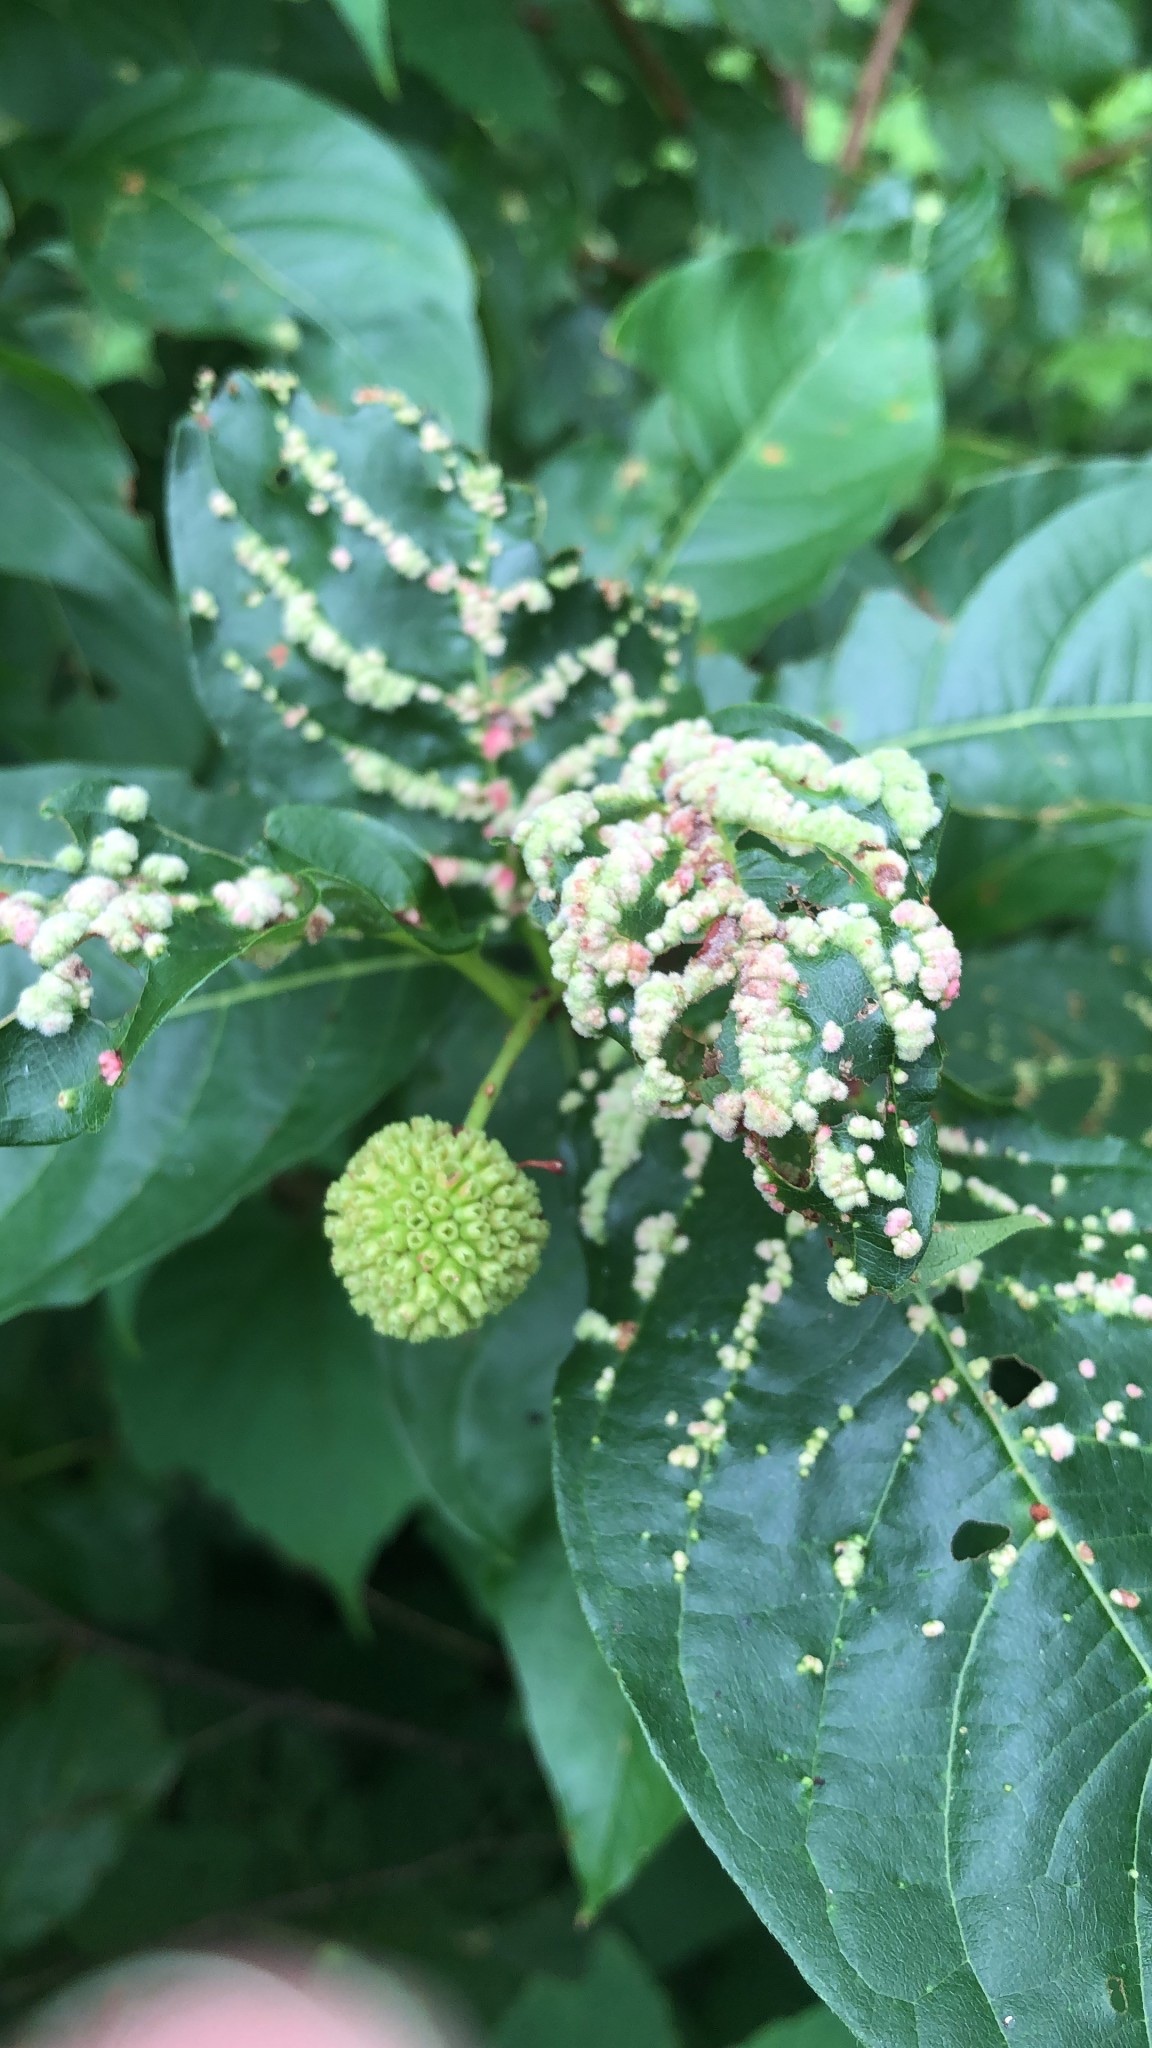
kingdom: Animalia
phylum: Arthropoda
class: Arachnida
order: Trombidiformes
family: Eriophyidae
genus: Aceria
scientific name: Aceria
